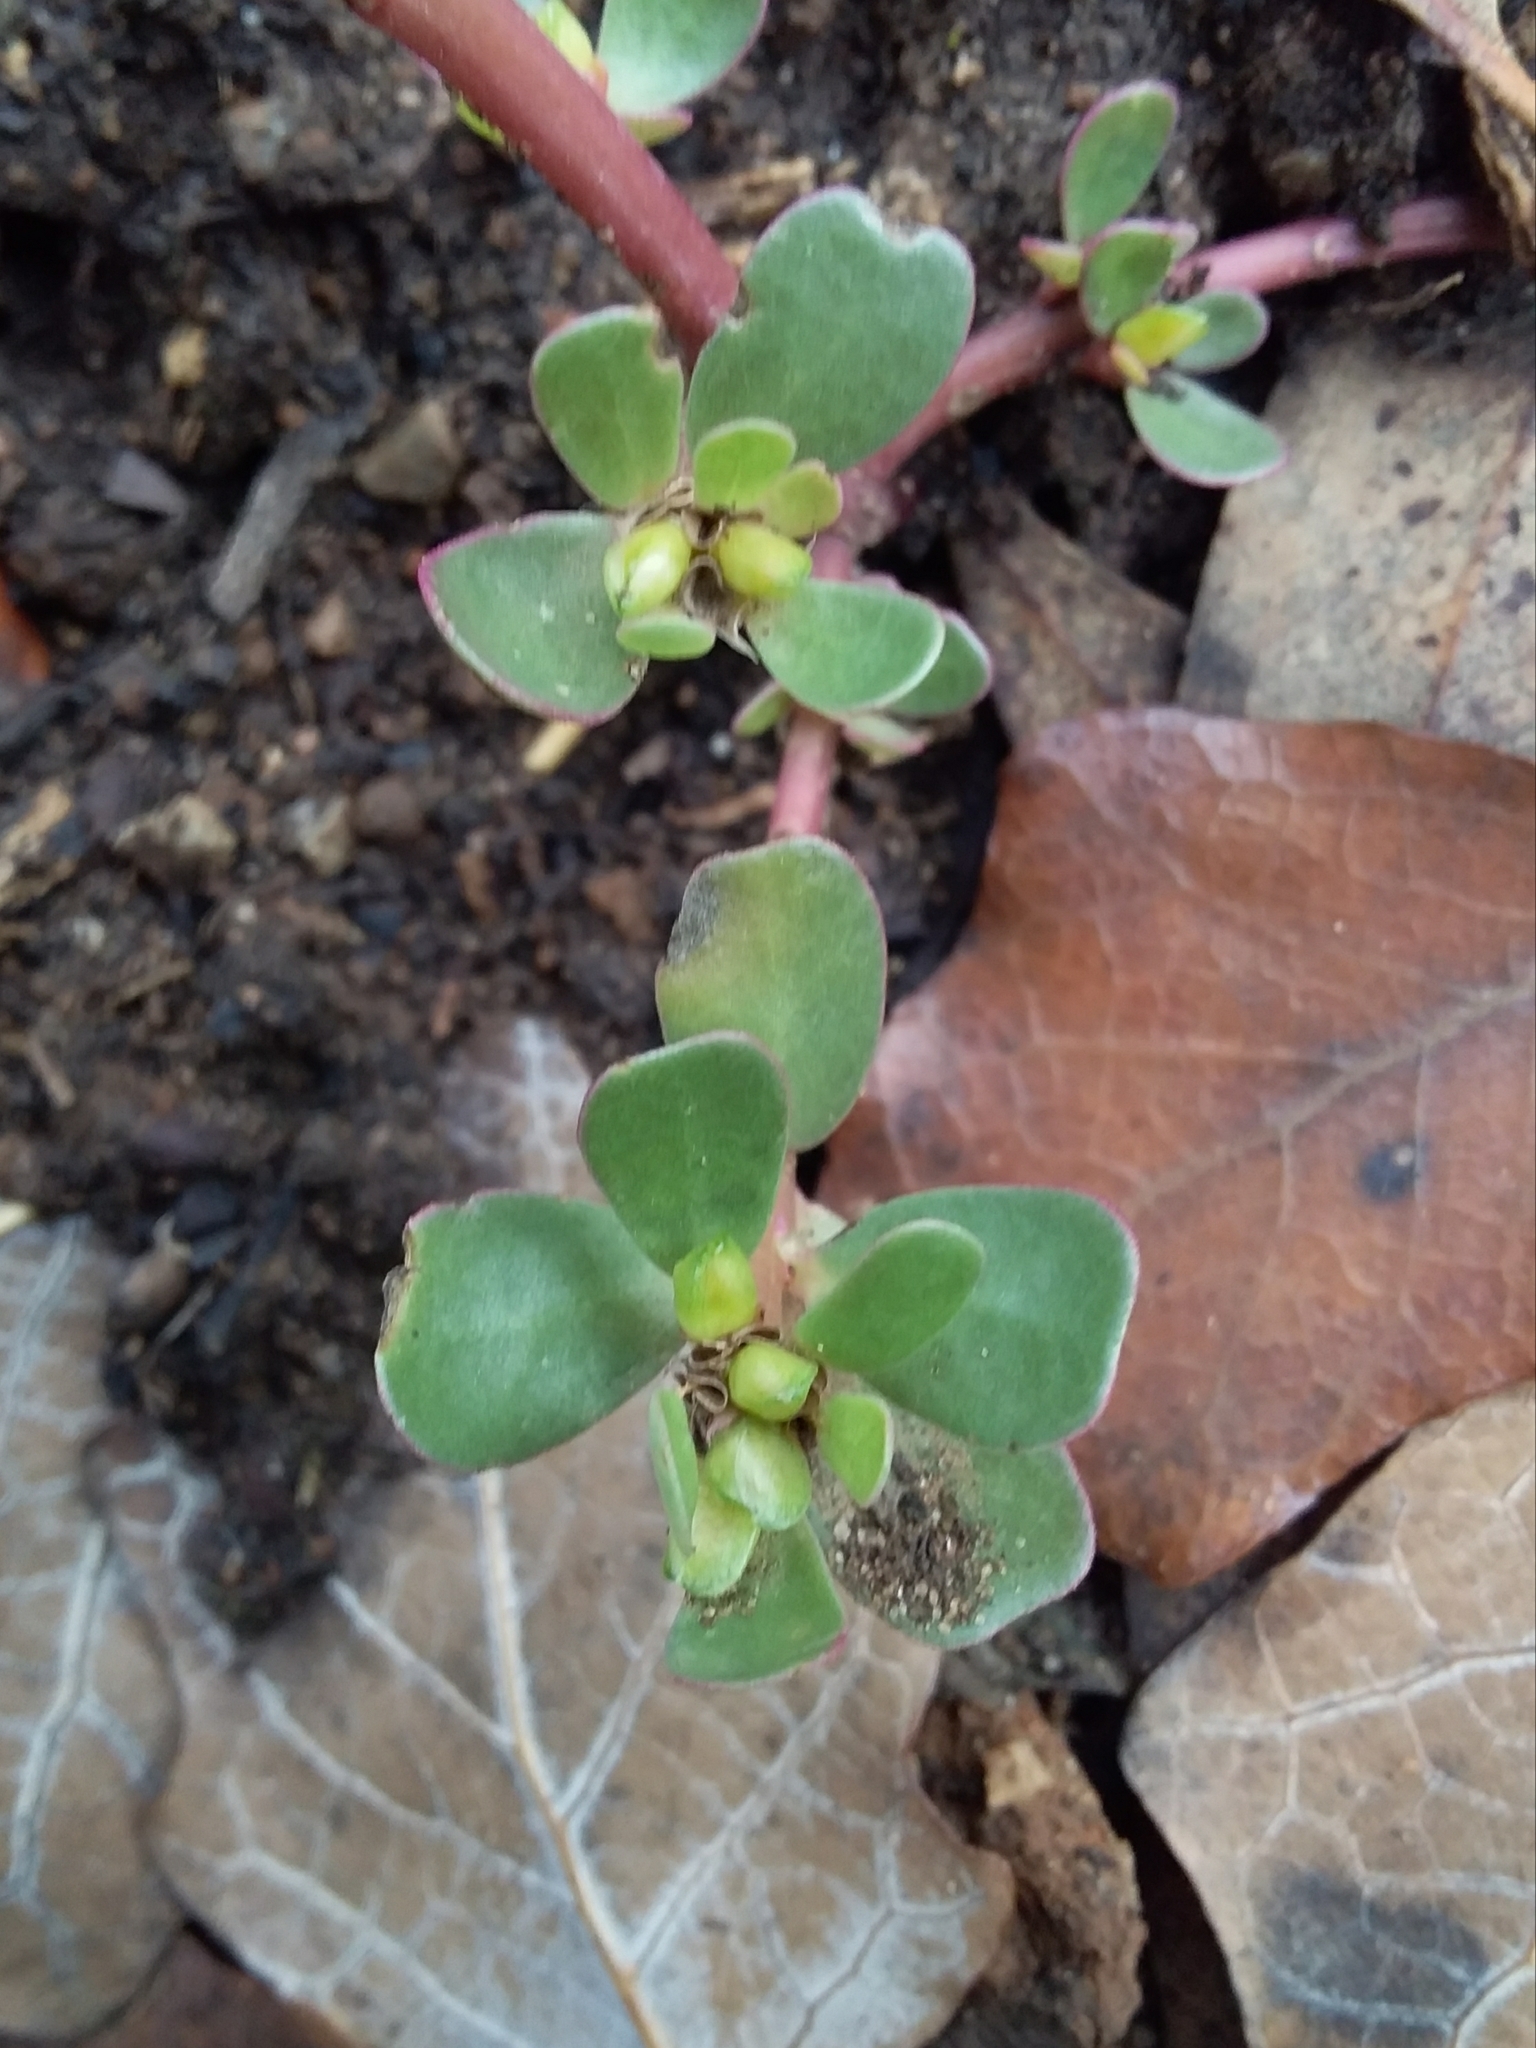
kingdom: Plantae
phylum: Tracheophyta
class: Magnoliopsida
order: Caryophyllales
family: Portulacaceae
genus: Portulaca
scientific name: Portulaca oleracea
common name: Common purslane
